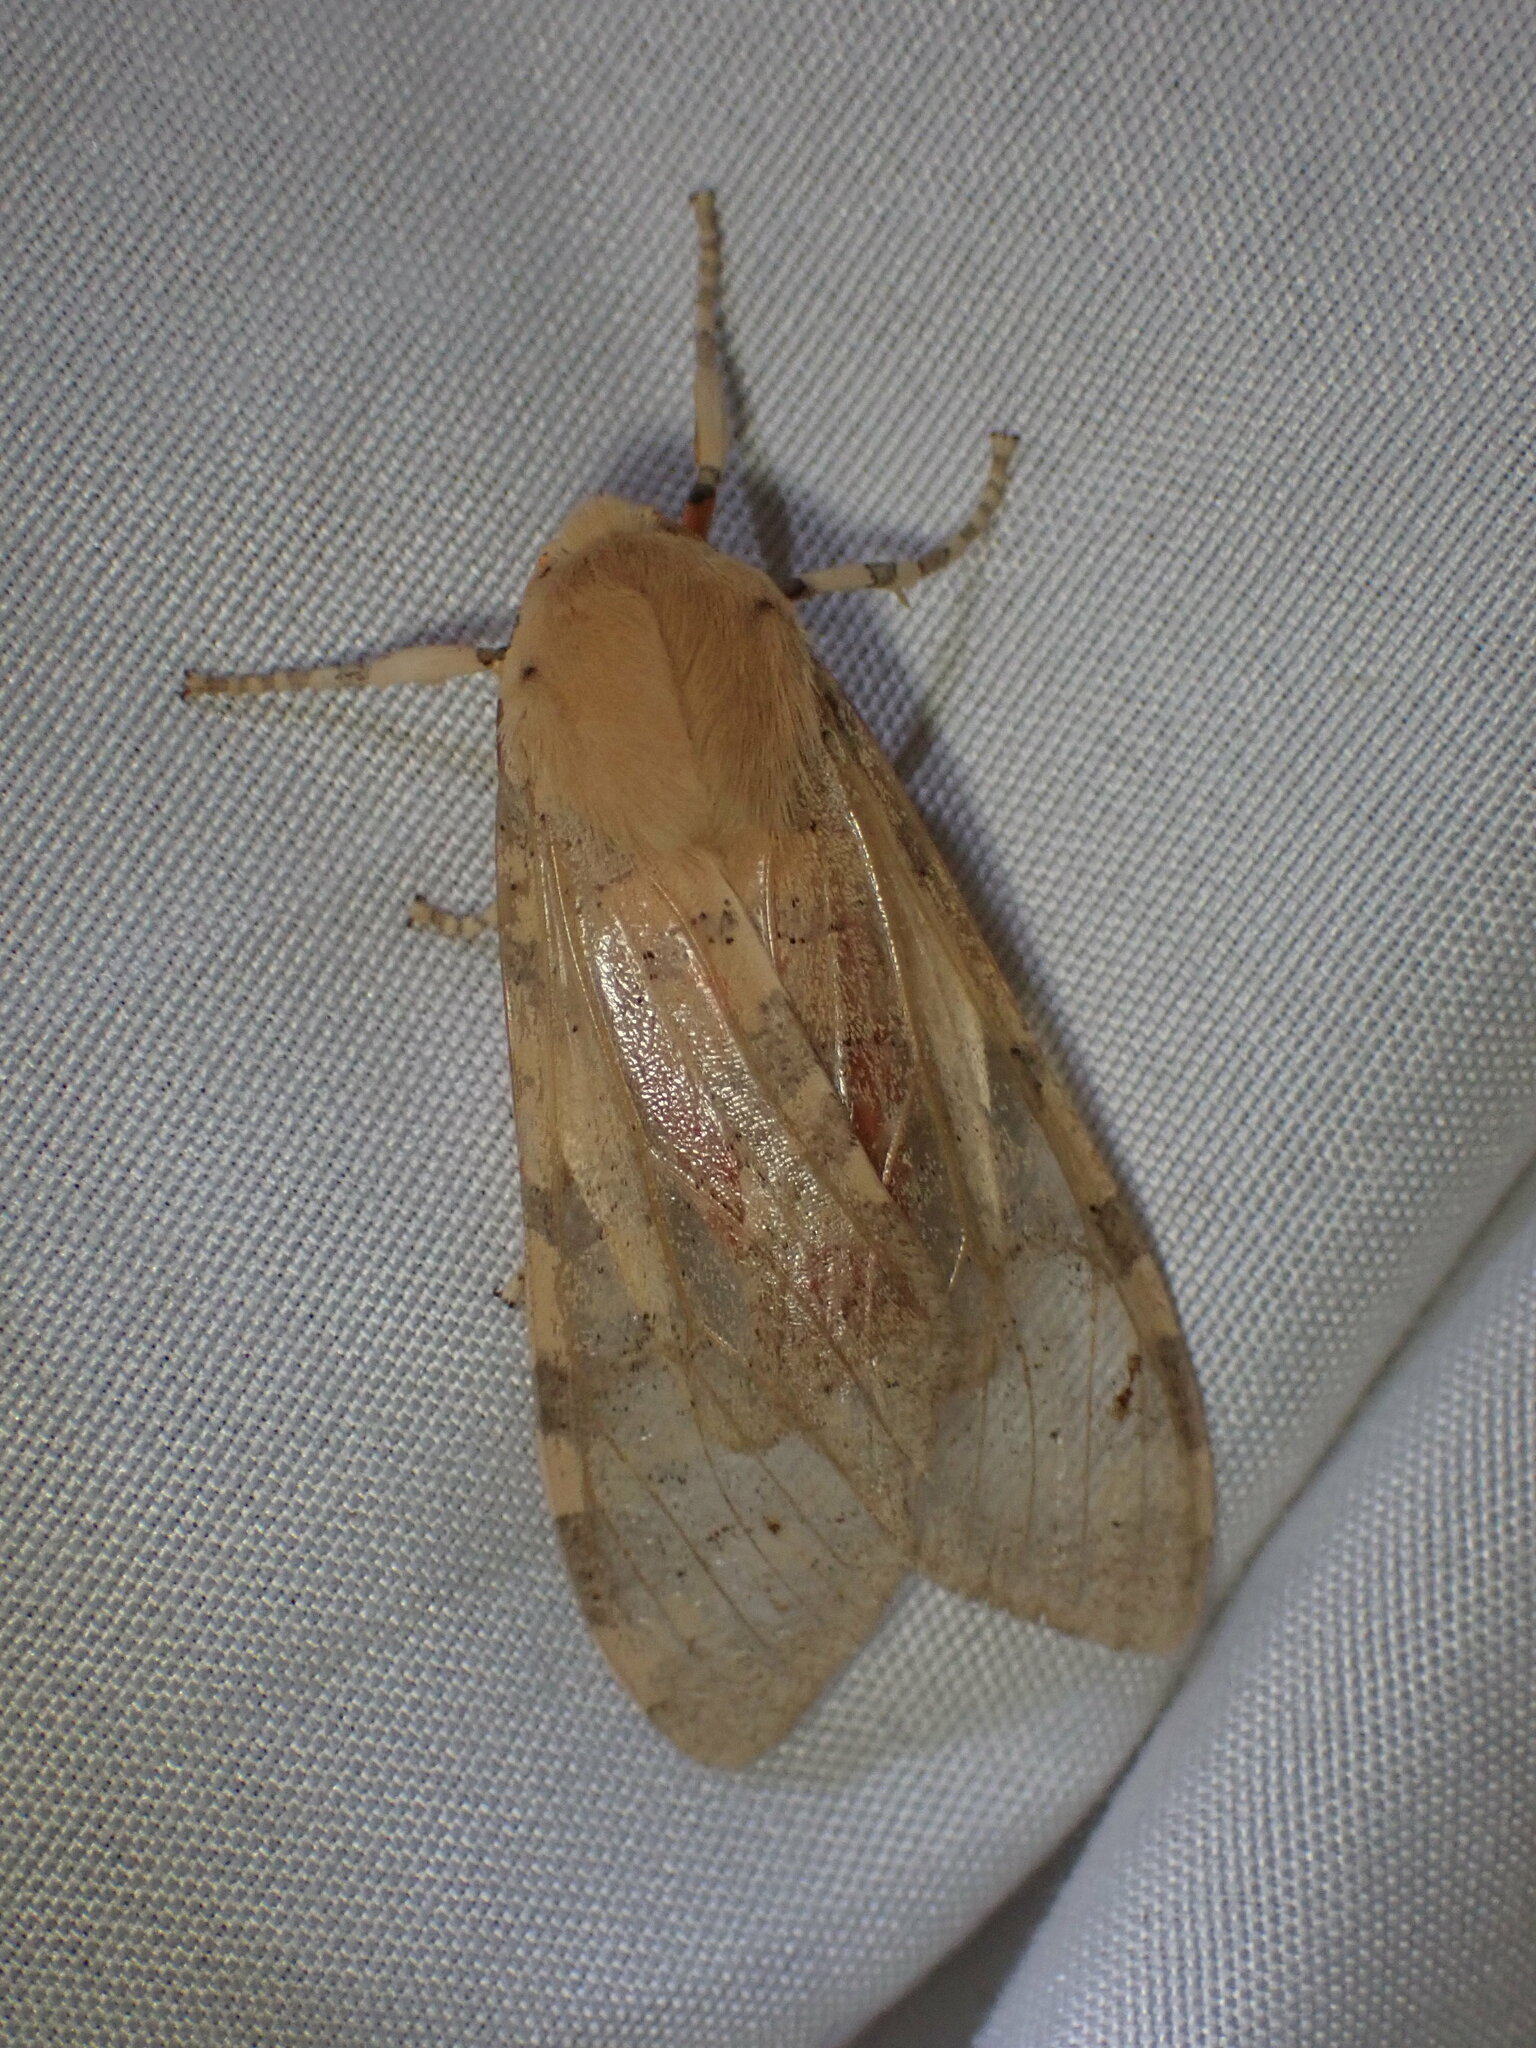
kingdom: Animalia
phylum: Arthropoda
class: Insecta
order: Lepidoptera
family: Erebidae
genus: Hemihyalea
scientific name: Hemihyalea edwardsii
